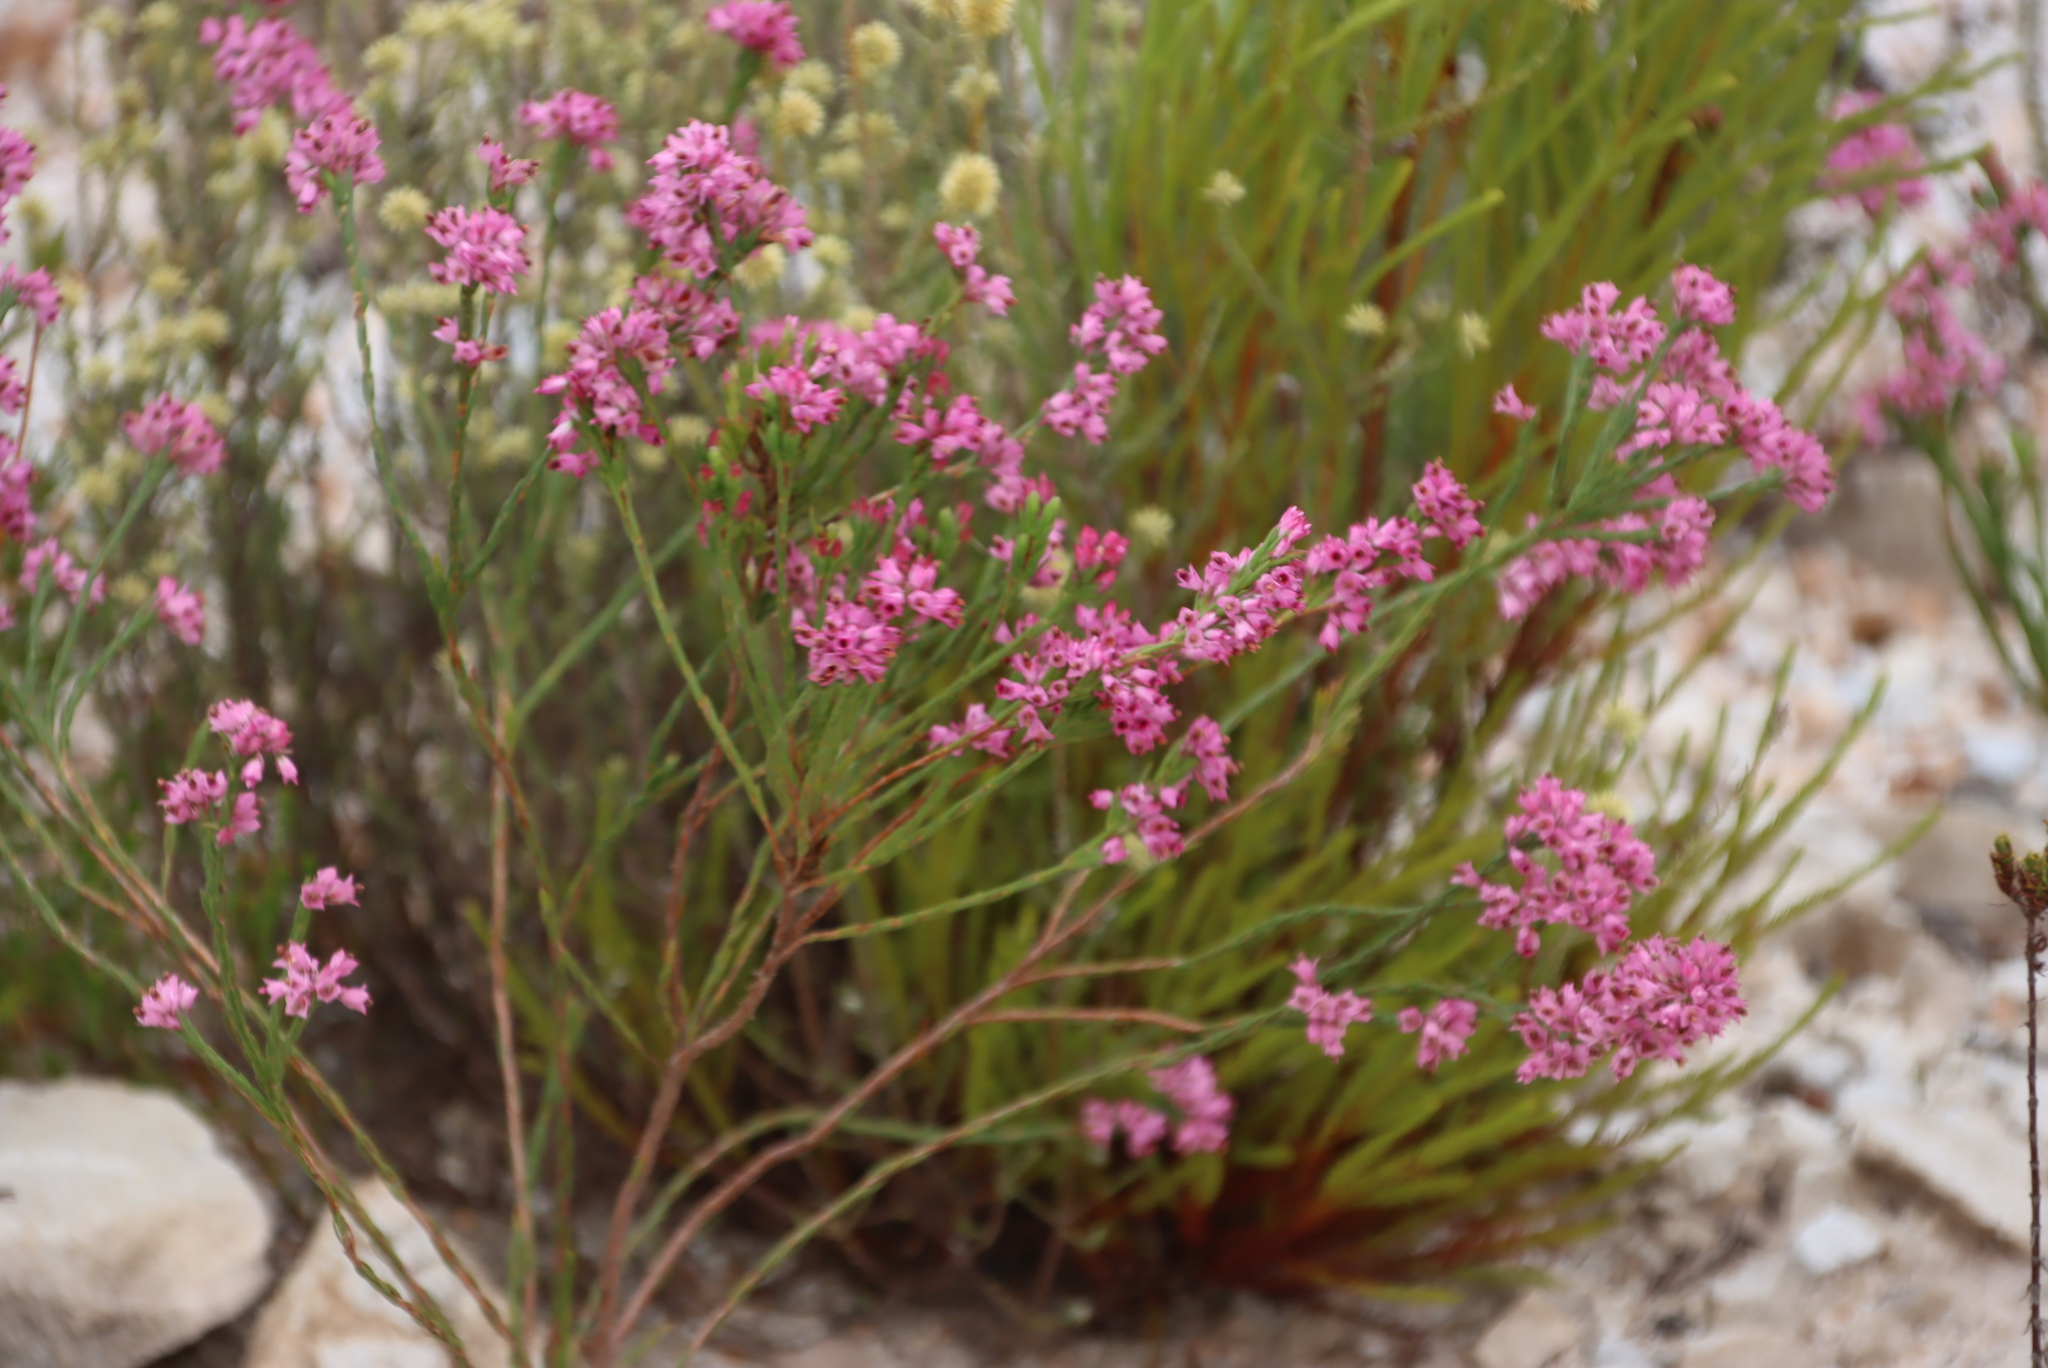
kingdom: Plantae
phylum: Tracheophyta
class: Magnoliopsida
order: Ericales
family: Ericaceae
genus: Erica
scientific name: Erica corifolia
